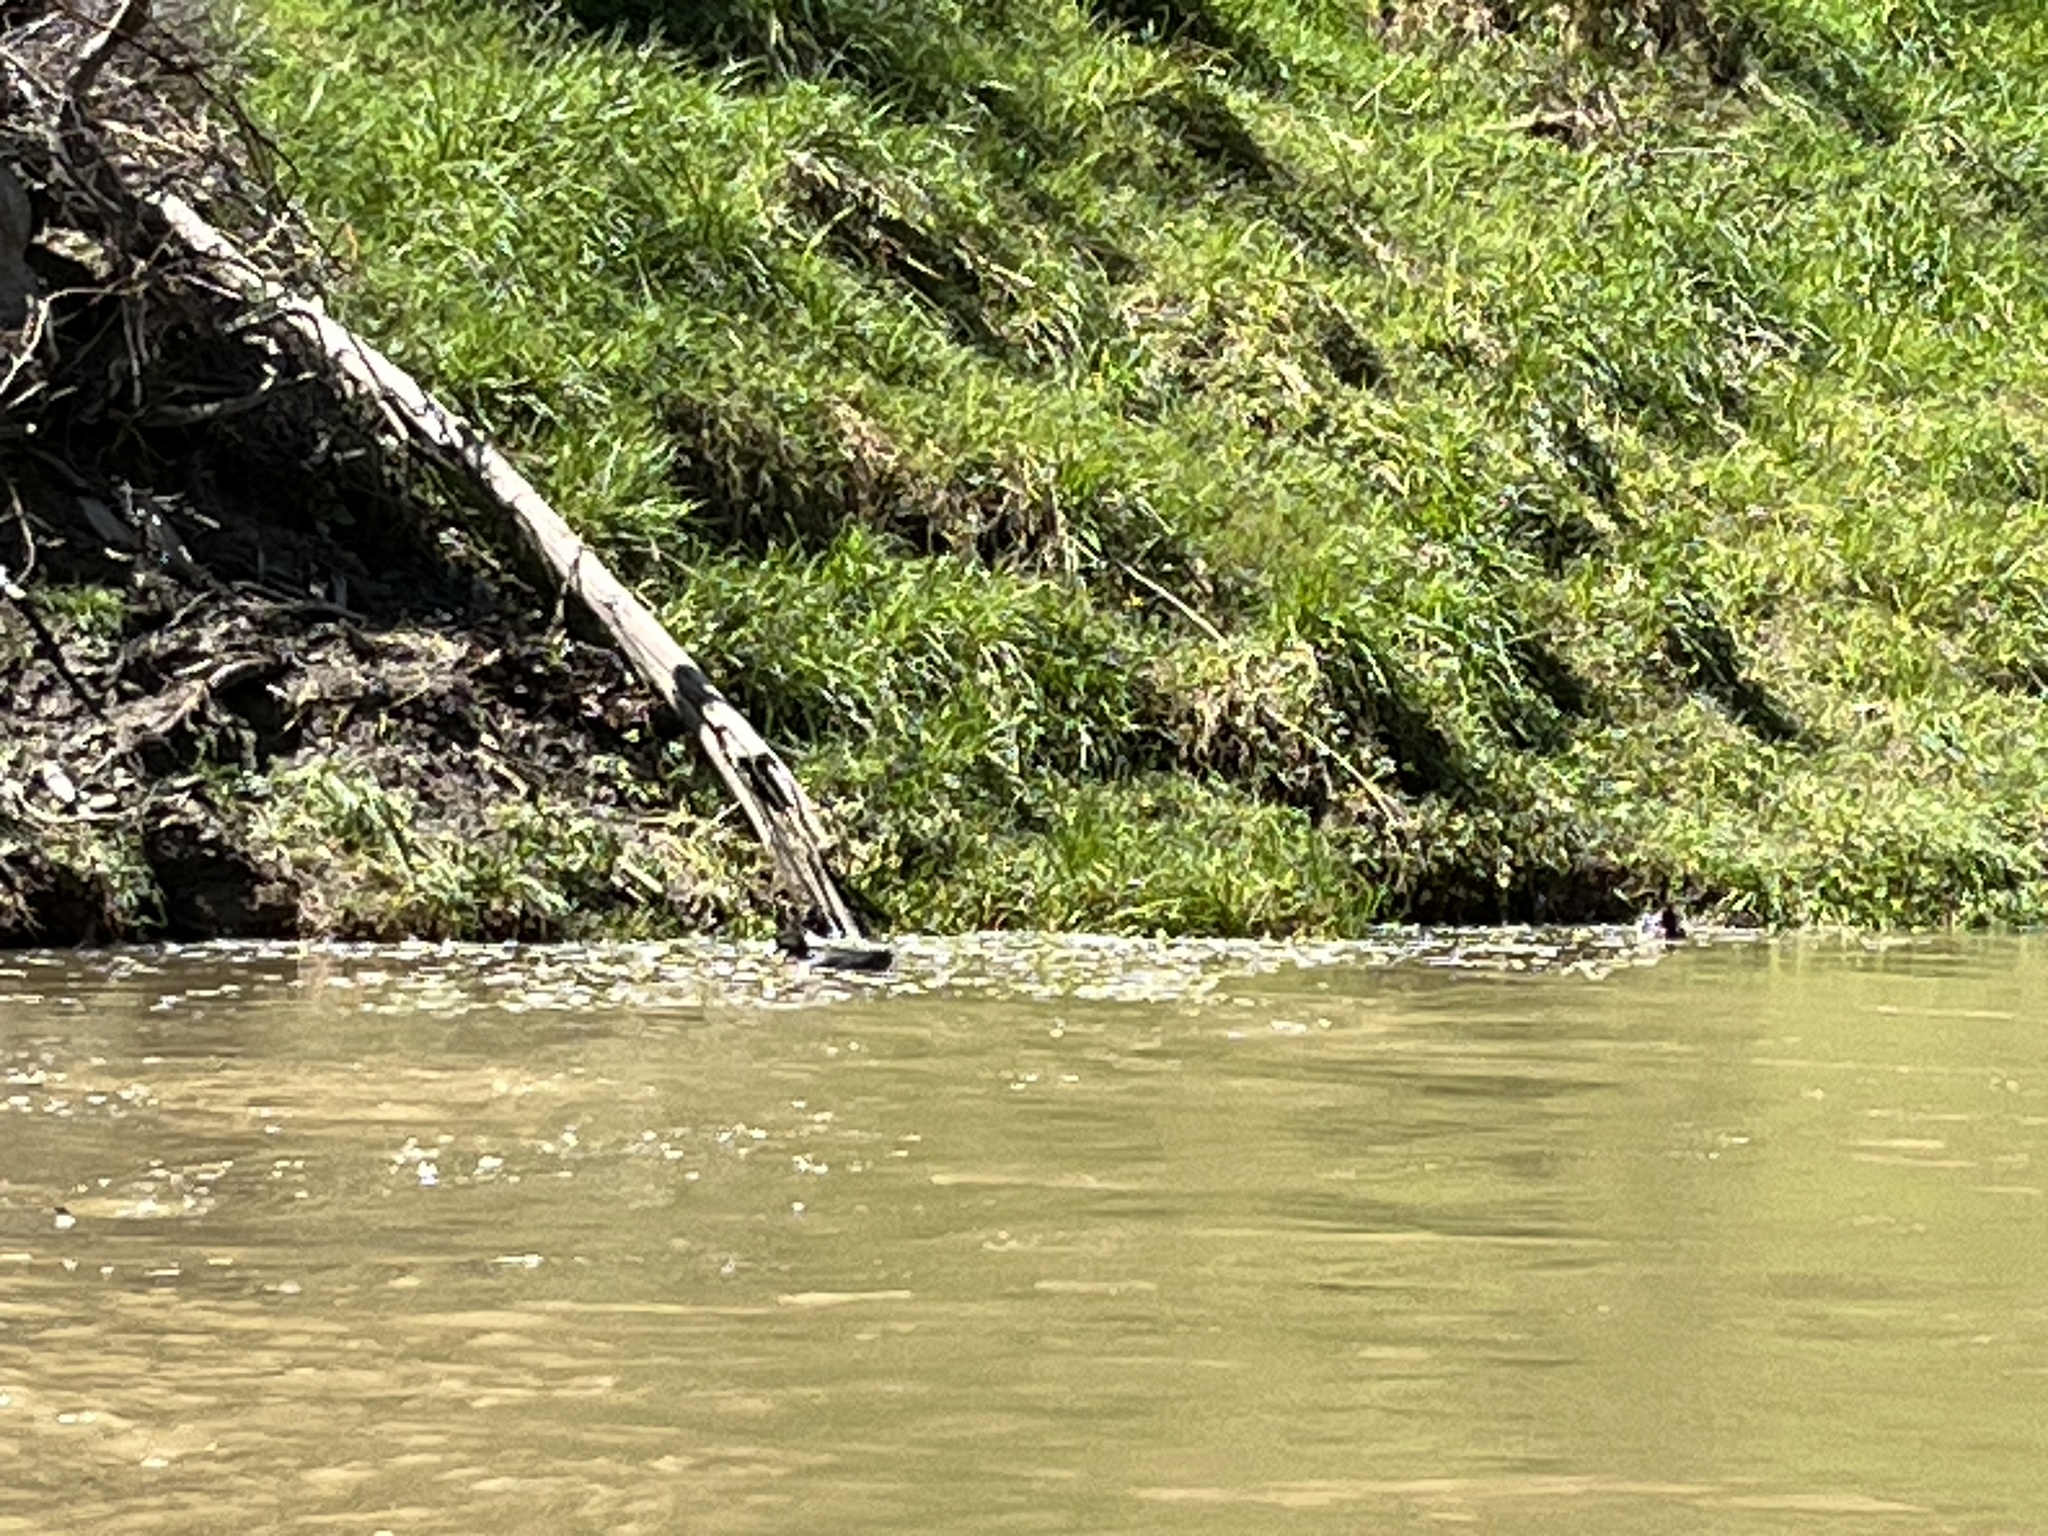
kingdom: Animalia
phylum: Chordata
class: Aves
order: Anseriformes
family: Anatidae
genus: Hymenolaimus
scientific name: Hymenolaimus malacorhynchos
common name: Blue duck
